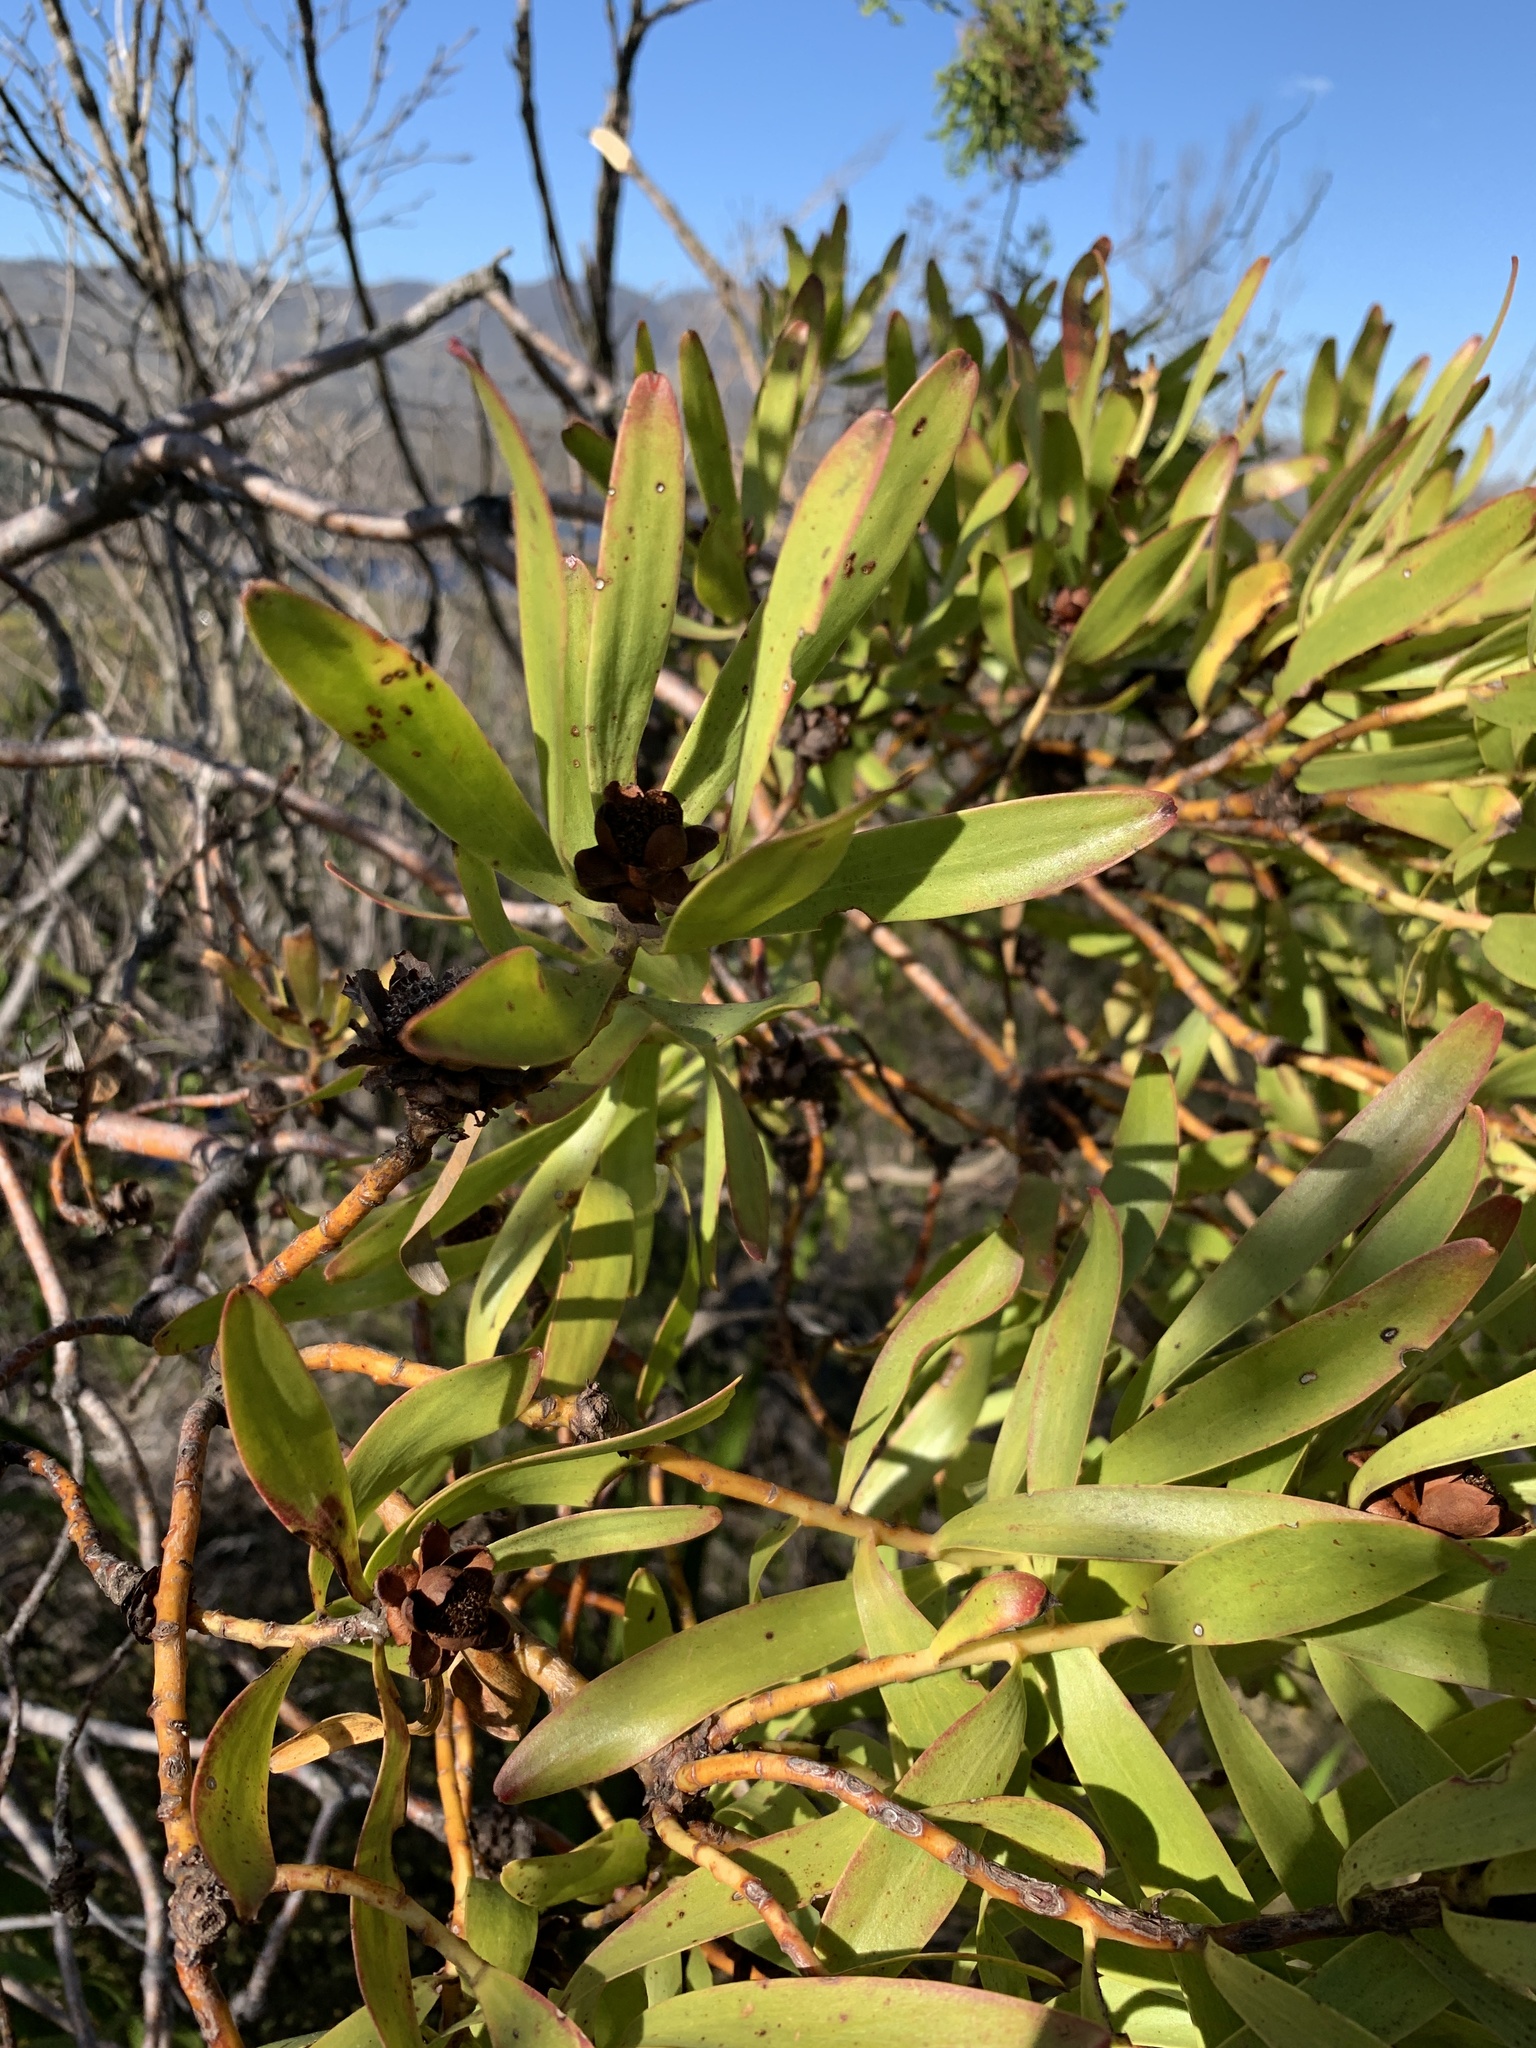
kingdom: Plantae
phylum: Tracheophyta
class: Magnoliopsida
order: Proteales
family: Proteaceae
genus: Leucadendron
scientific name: Leucadendron microcephalum
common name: Oilbract conebush
